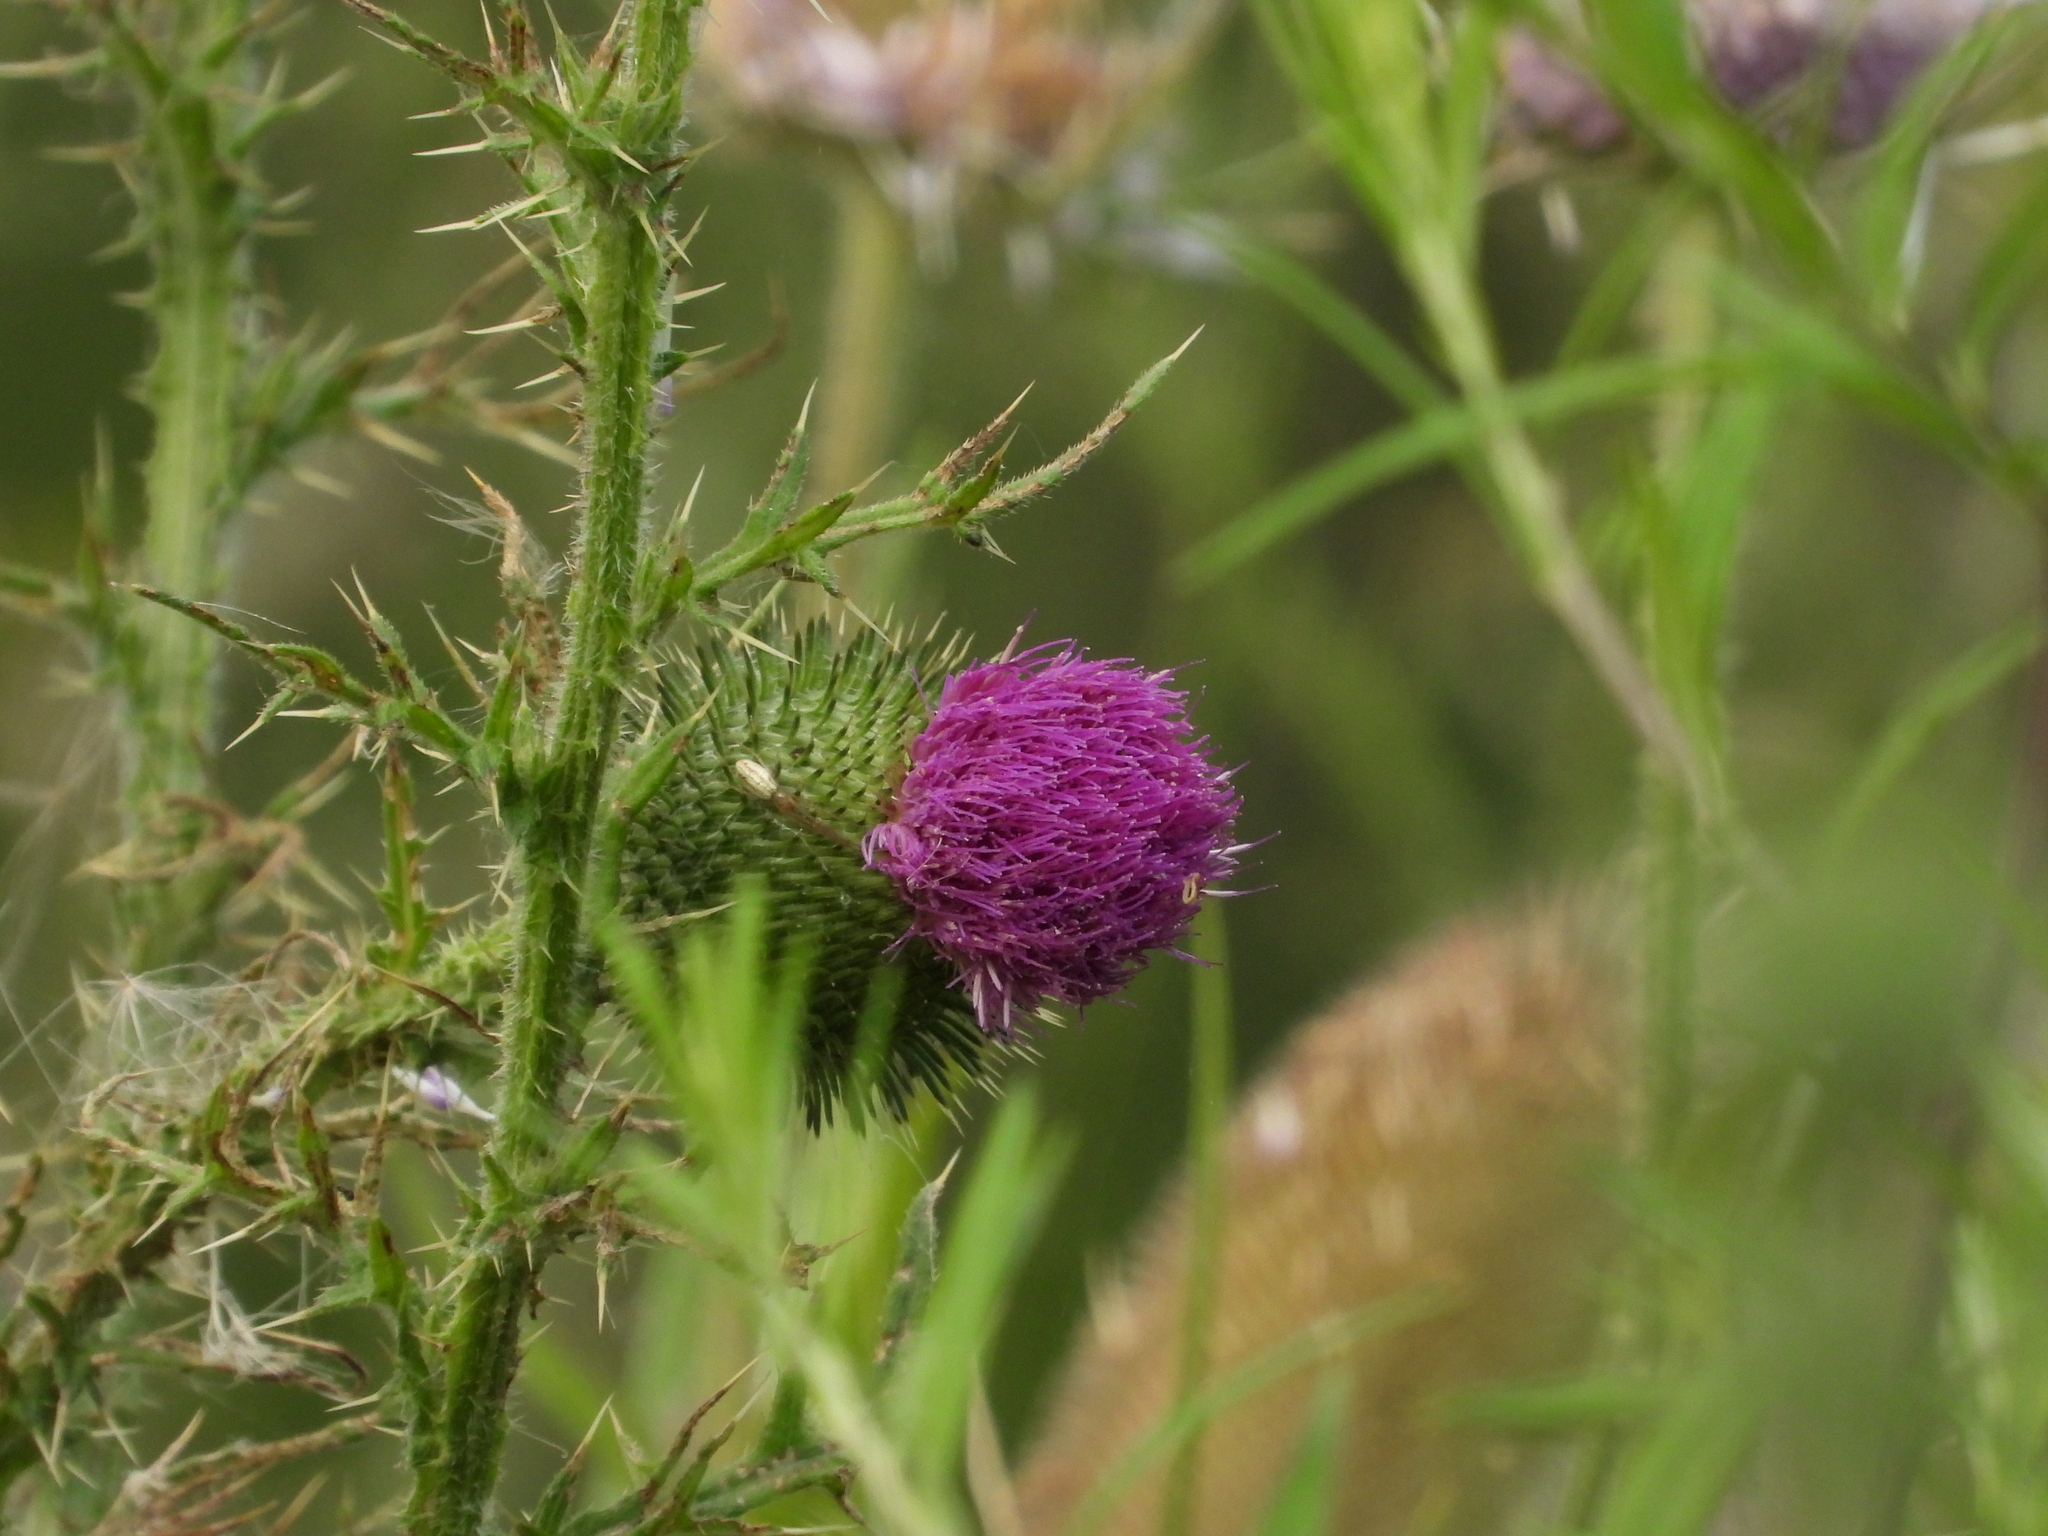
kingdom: Plantae
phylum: Tracheophyta
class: Magnoliopsida
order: Asterales
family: Asteraceae
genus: Cirsium
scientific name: Cirsium vulgare
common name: Bull thistle
